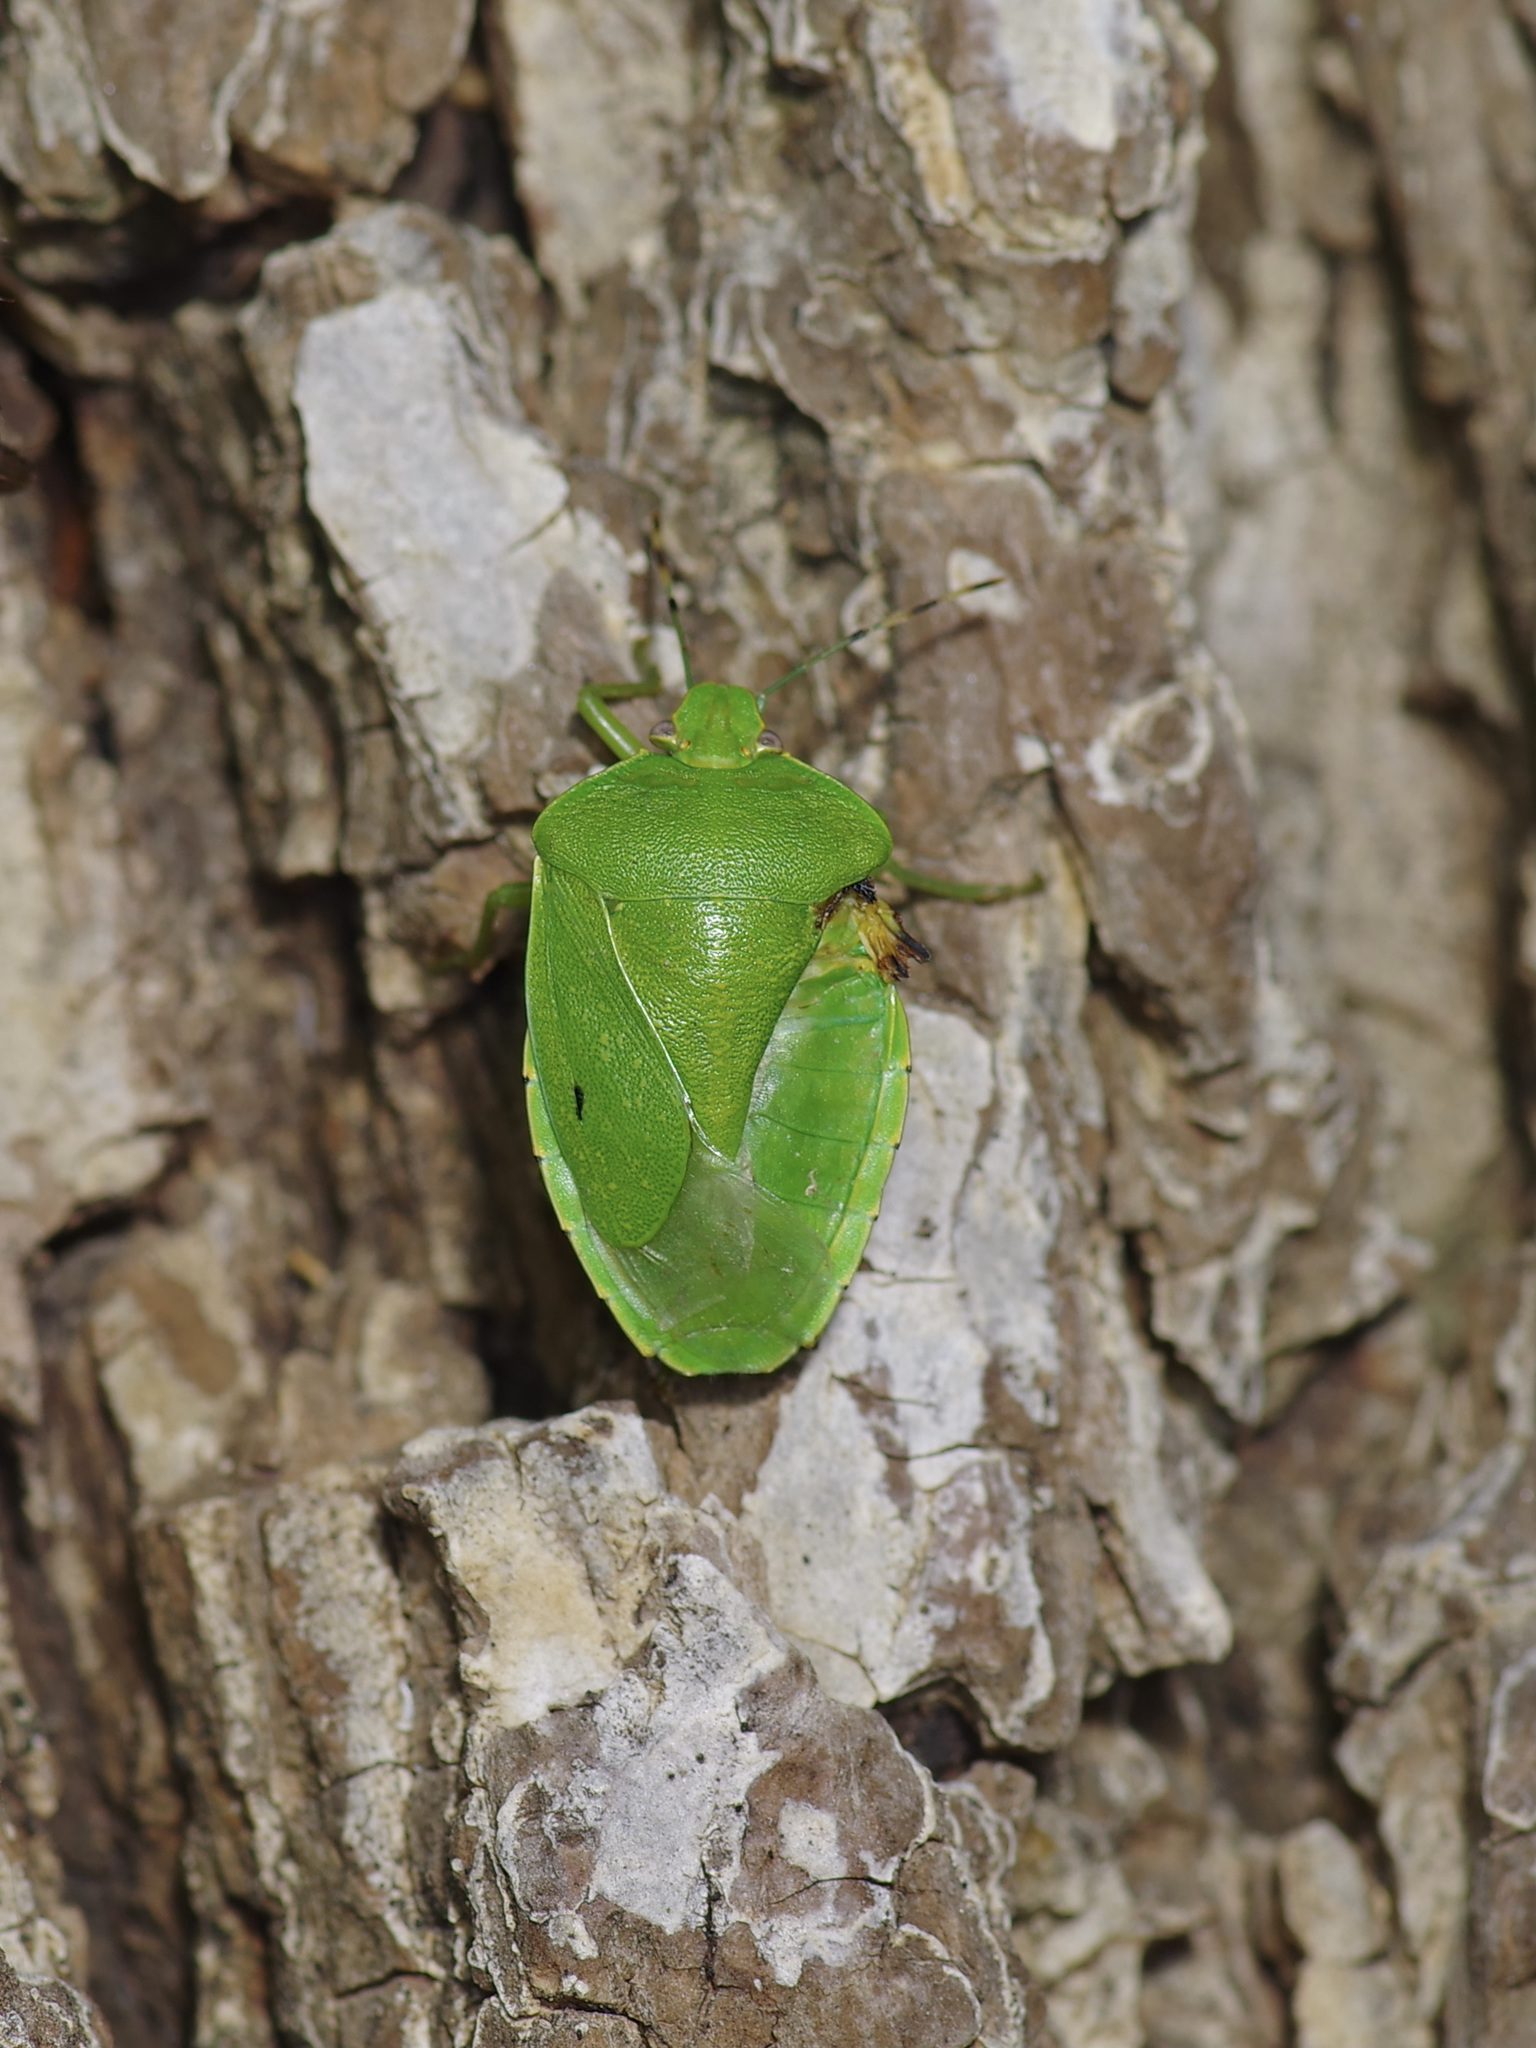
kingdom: Animalia
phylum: Arthropoda
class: Insecta
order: Hemiptera
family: Pentatomidae
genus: Chinavia
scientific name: Chinavia hilaris
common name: Green stink bug
